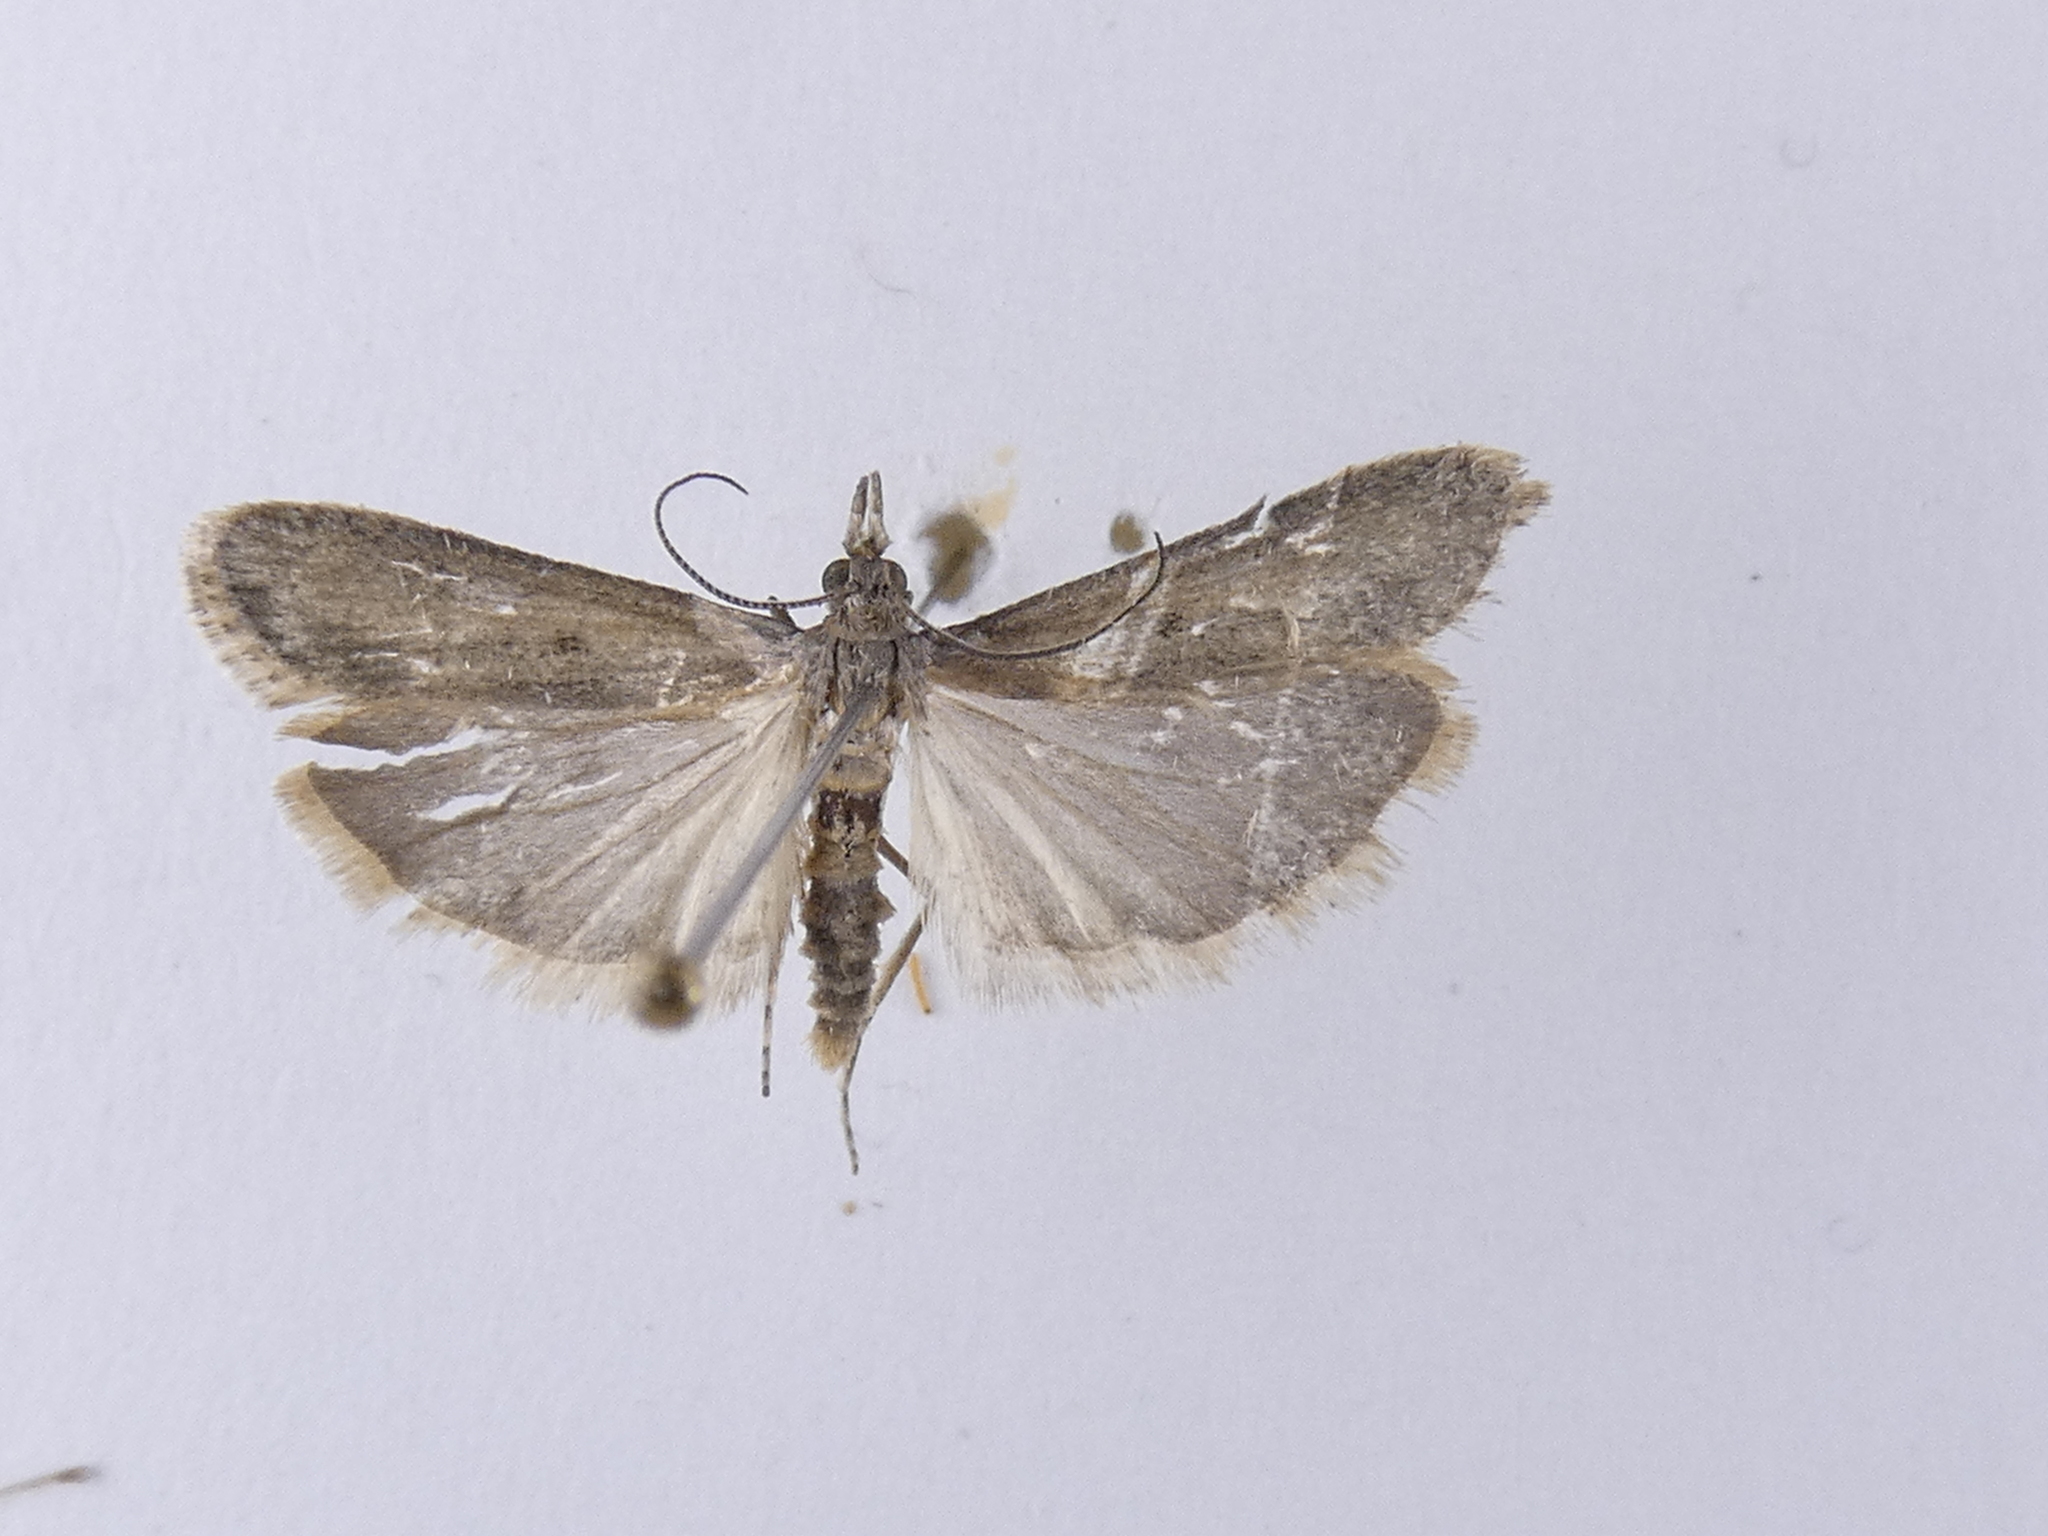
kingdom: Animalia
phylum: Arthropoda
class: Insecta
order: Lepidoptera
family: Crambidae
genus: Eudonia
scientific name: Eudonia leptalea
